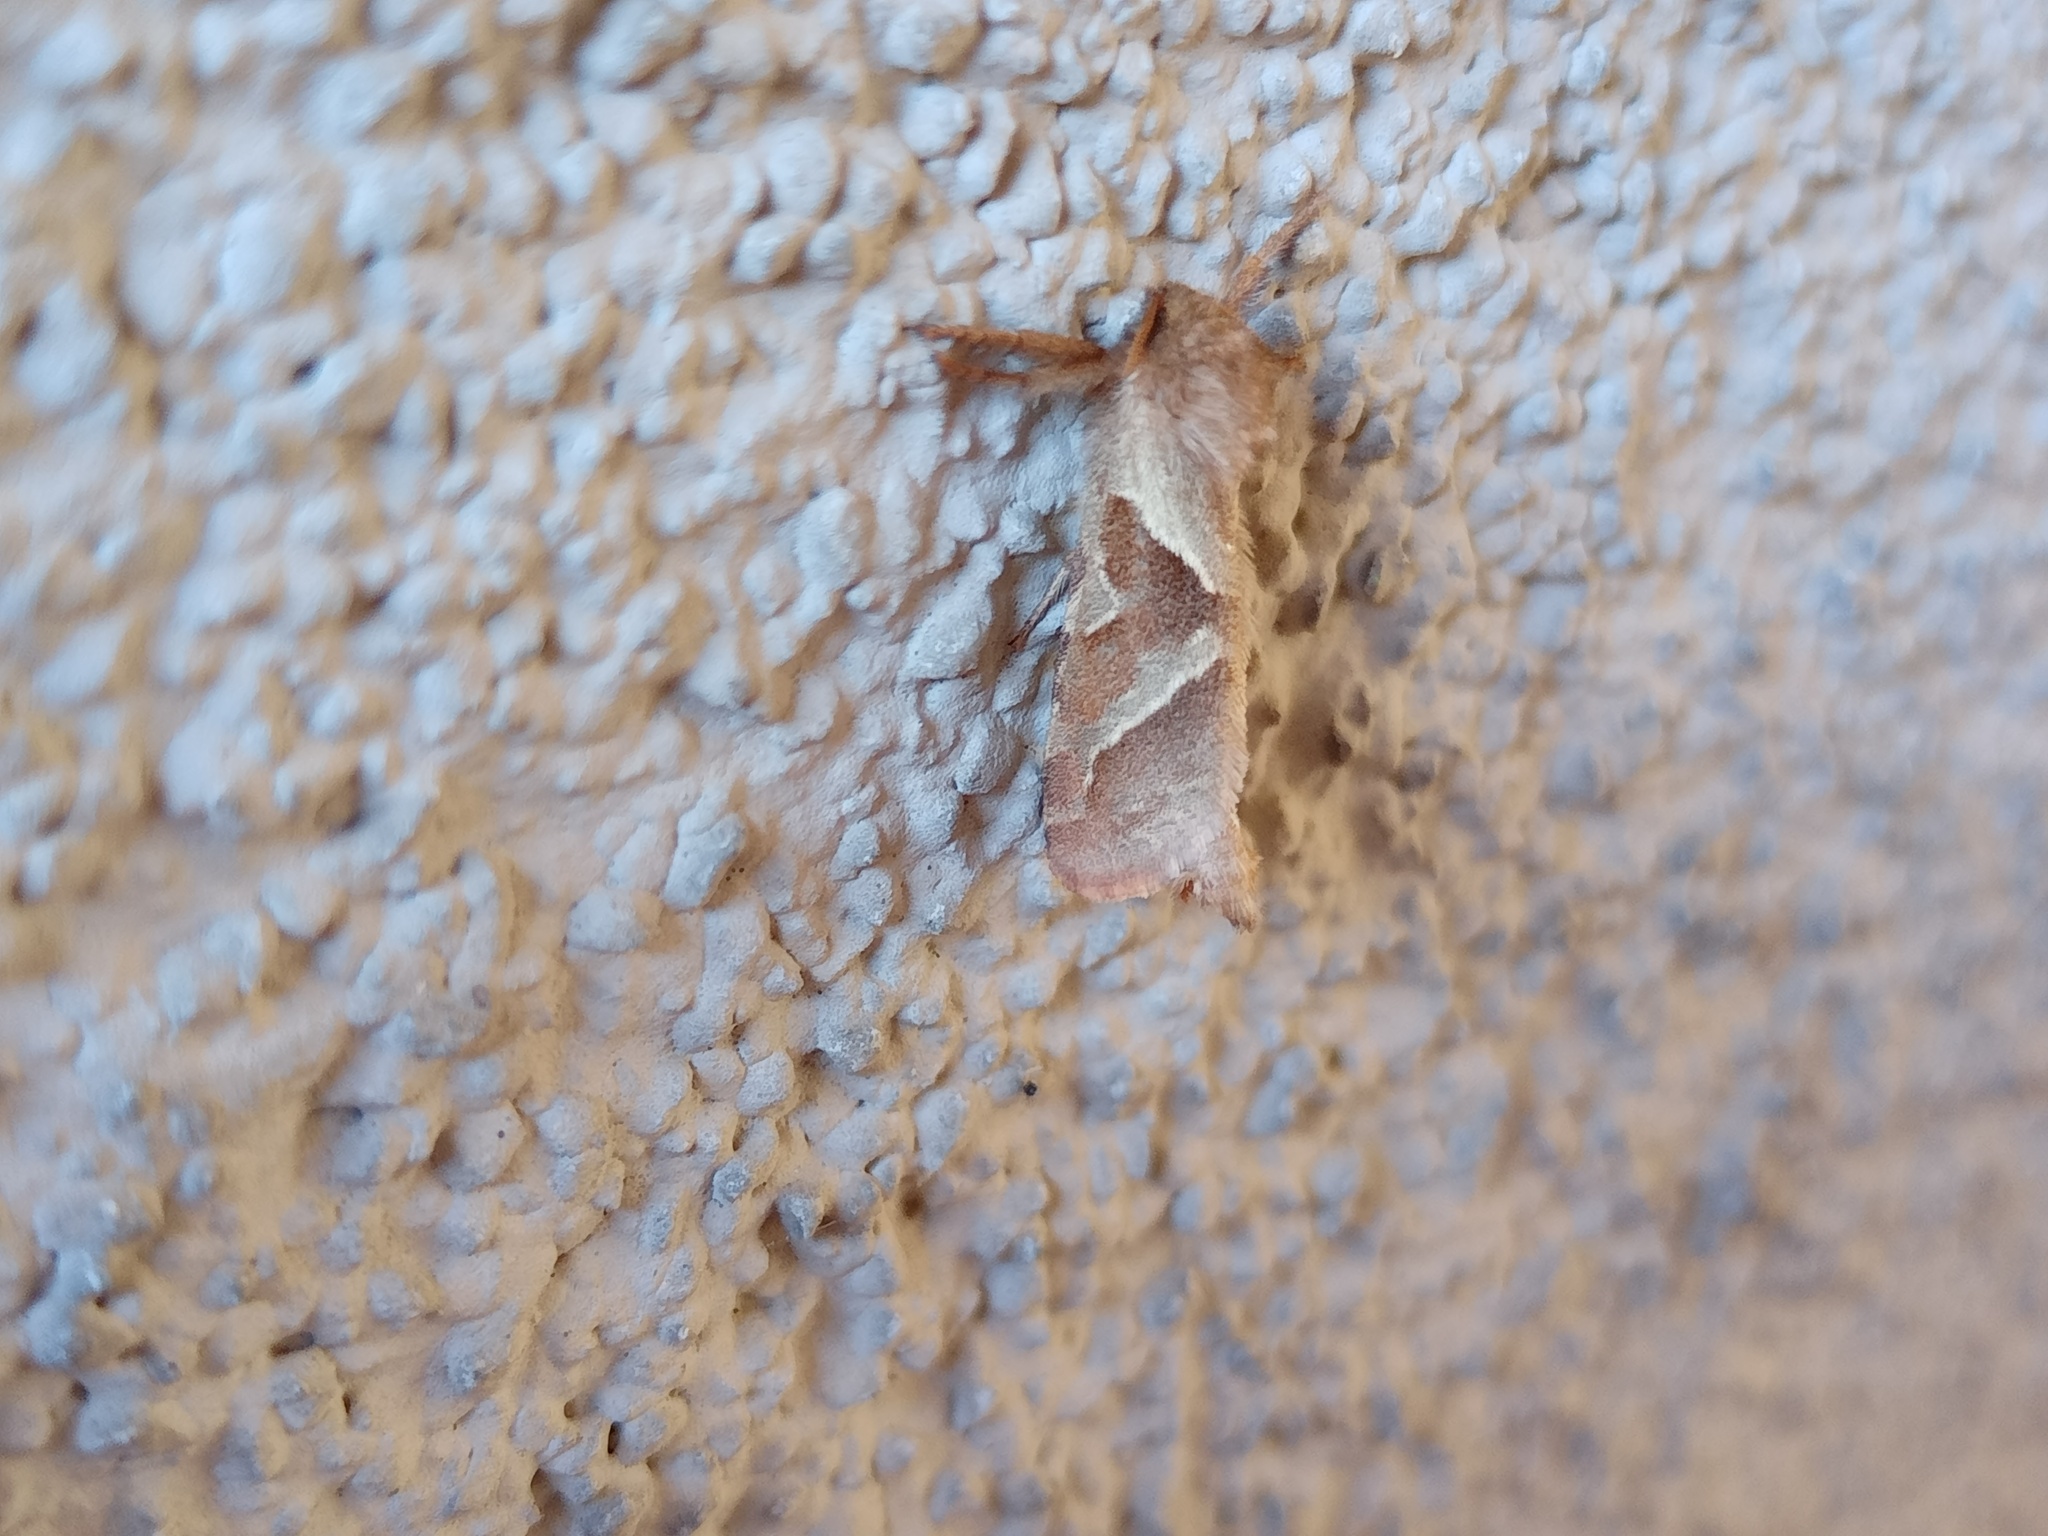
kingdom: Animalia
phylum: Arthropoda
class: Insecta
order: Lepidoptera
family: Hepialidae
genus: Triodia
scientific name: Triodia sylvina
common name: Orange swift
